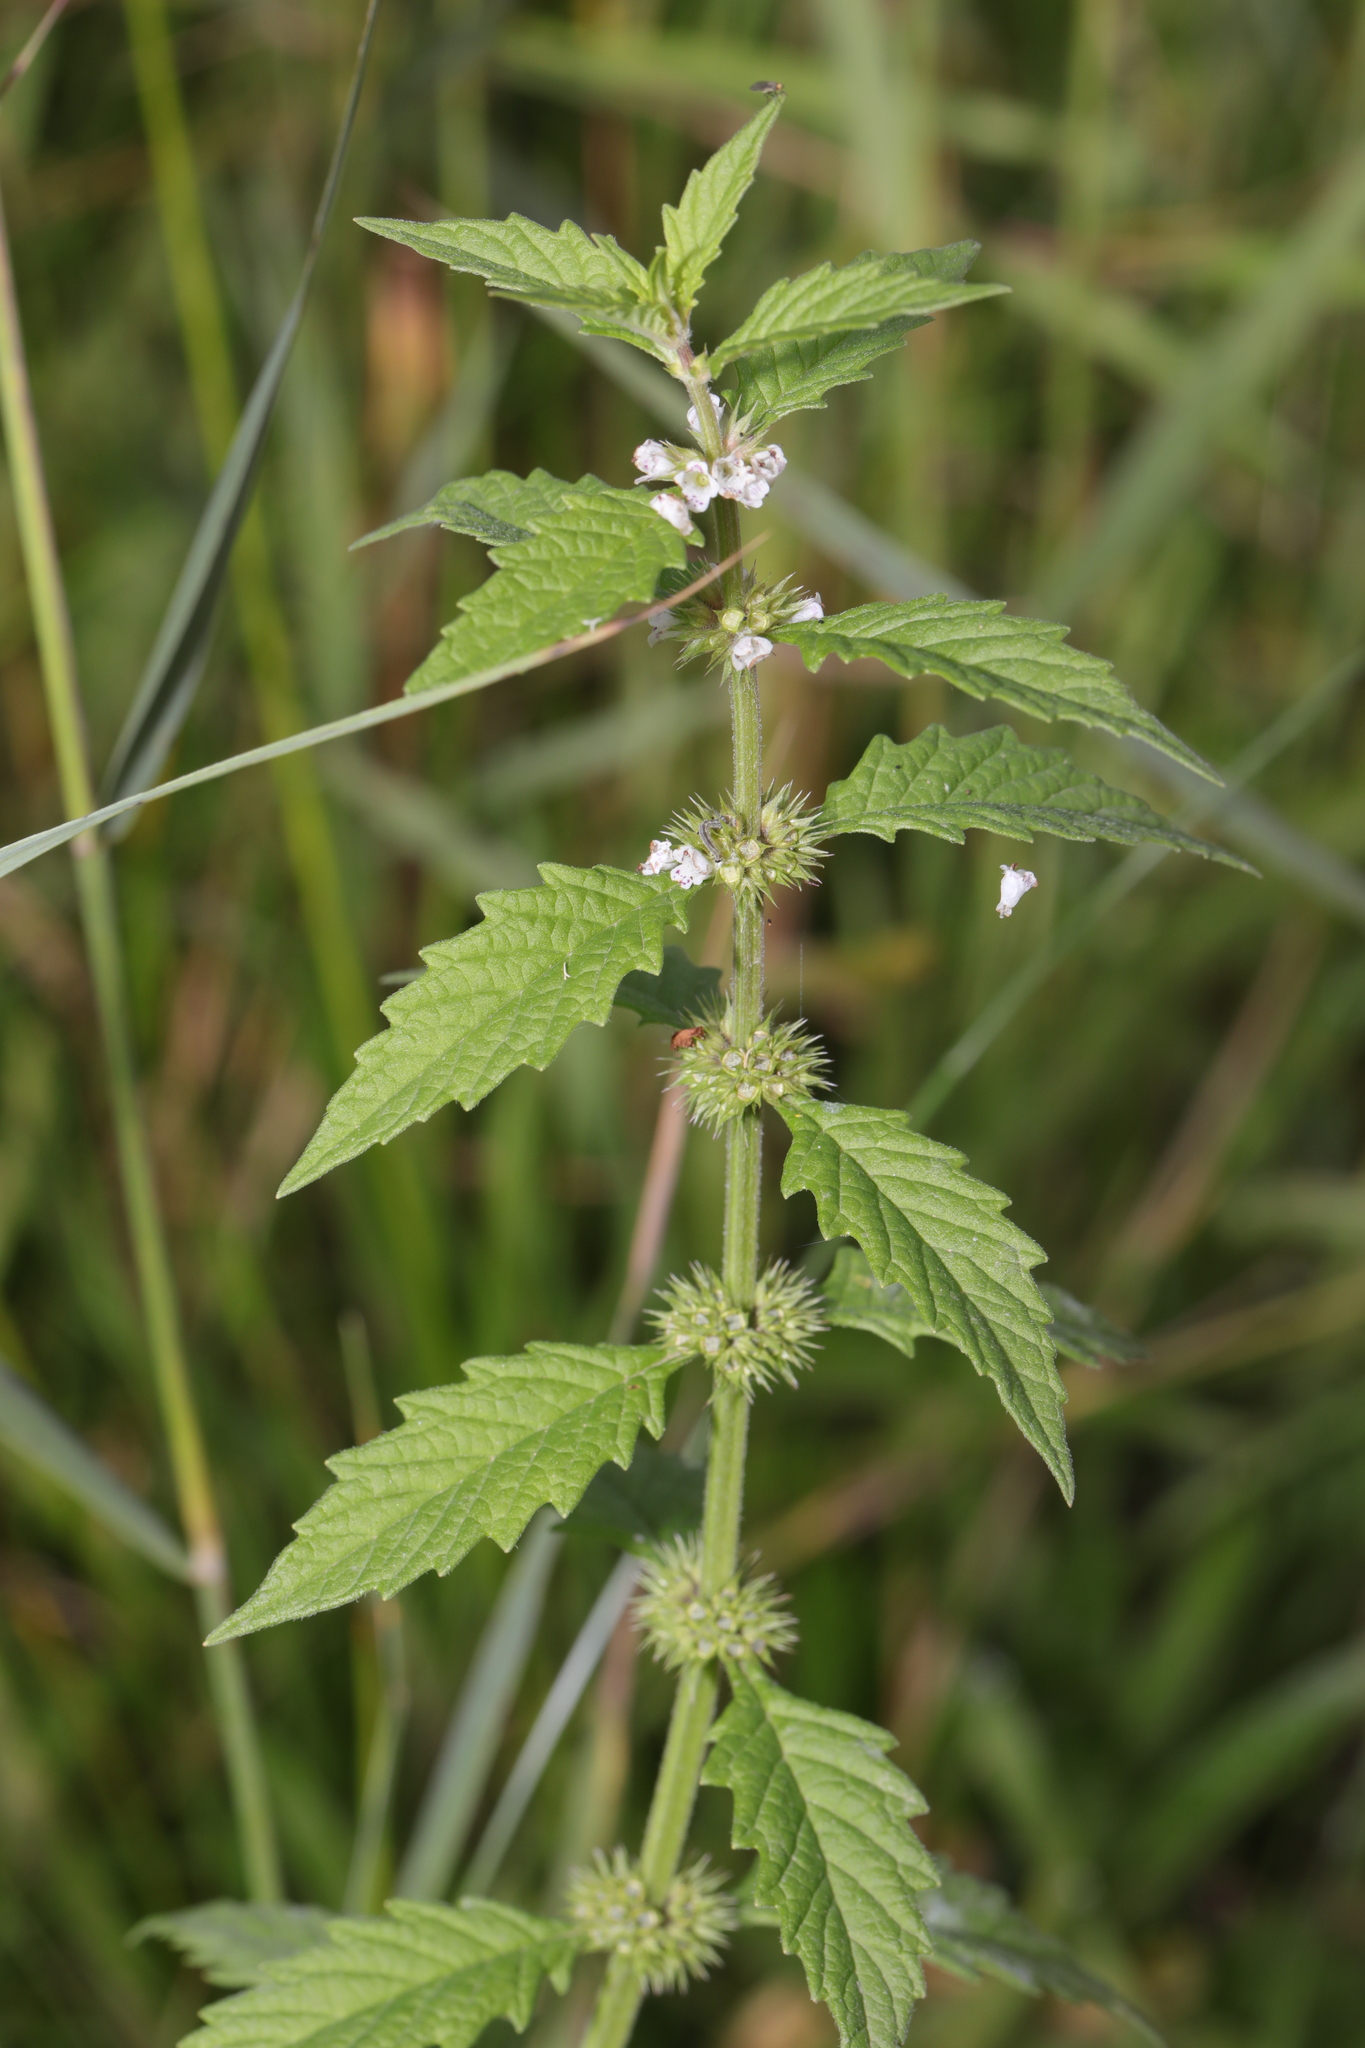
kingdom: Plantae
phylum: Tracheophyta
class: Magnoliopsida
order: Lamiales
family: Lamiaceae
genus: Lycopus
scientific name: Lycopus europaeus
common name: European bugleweed
